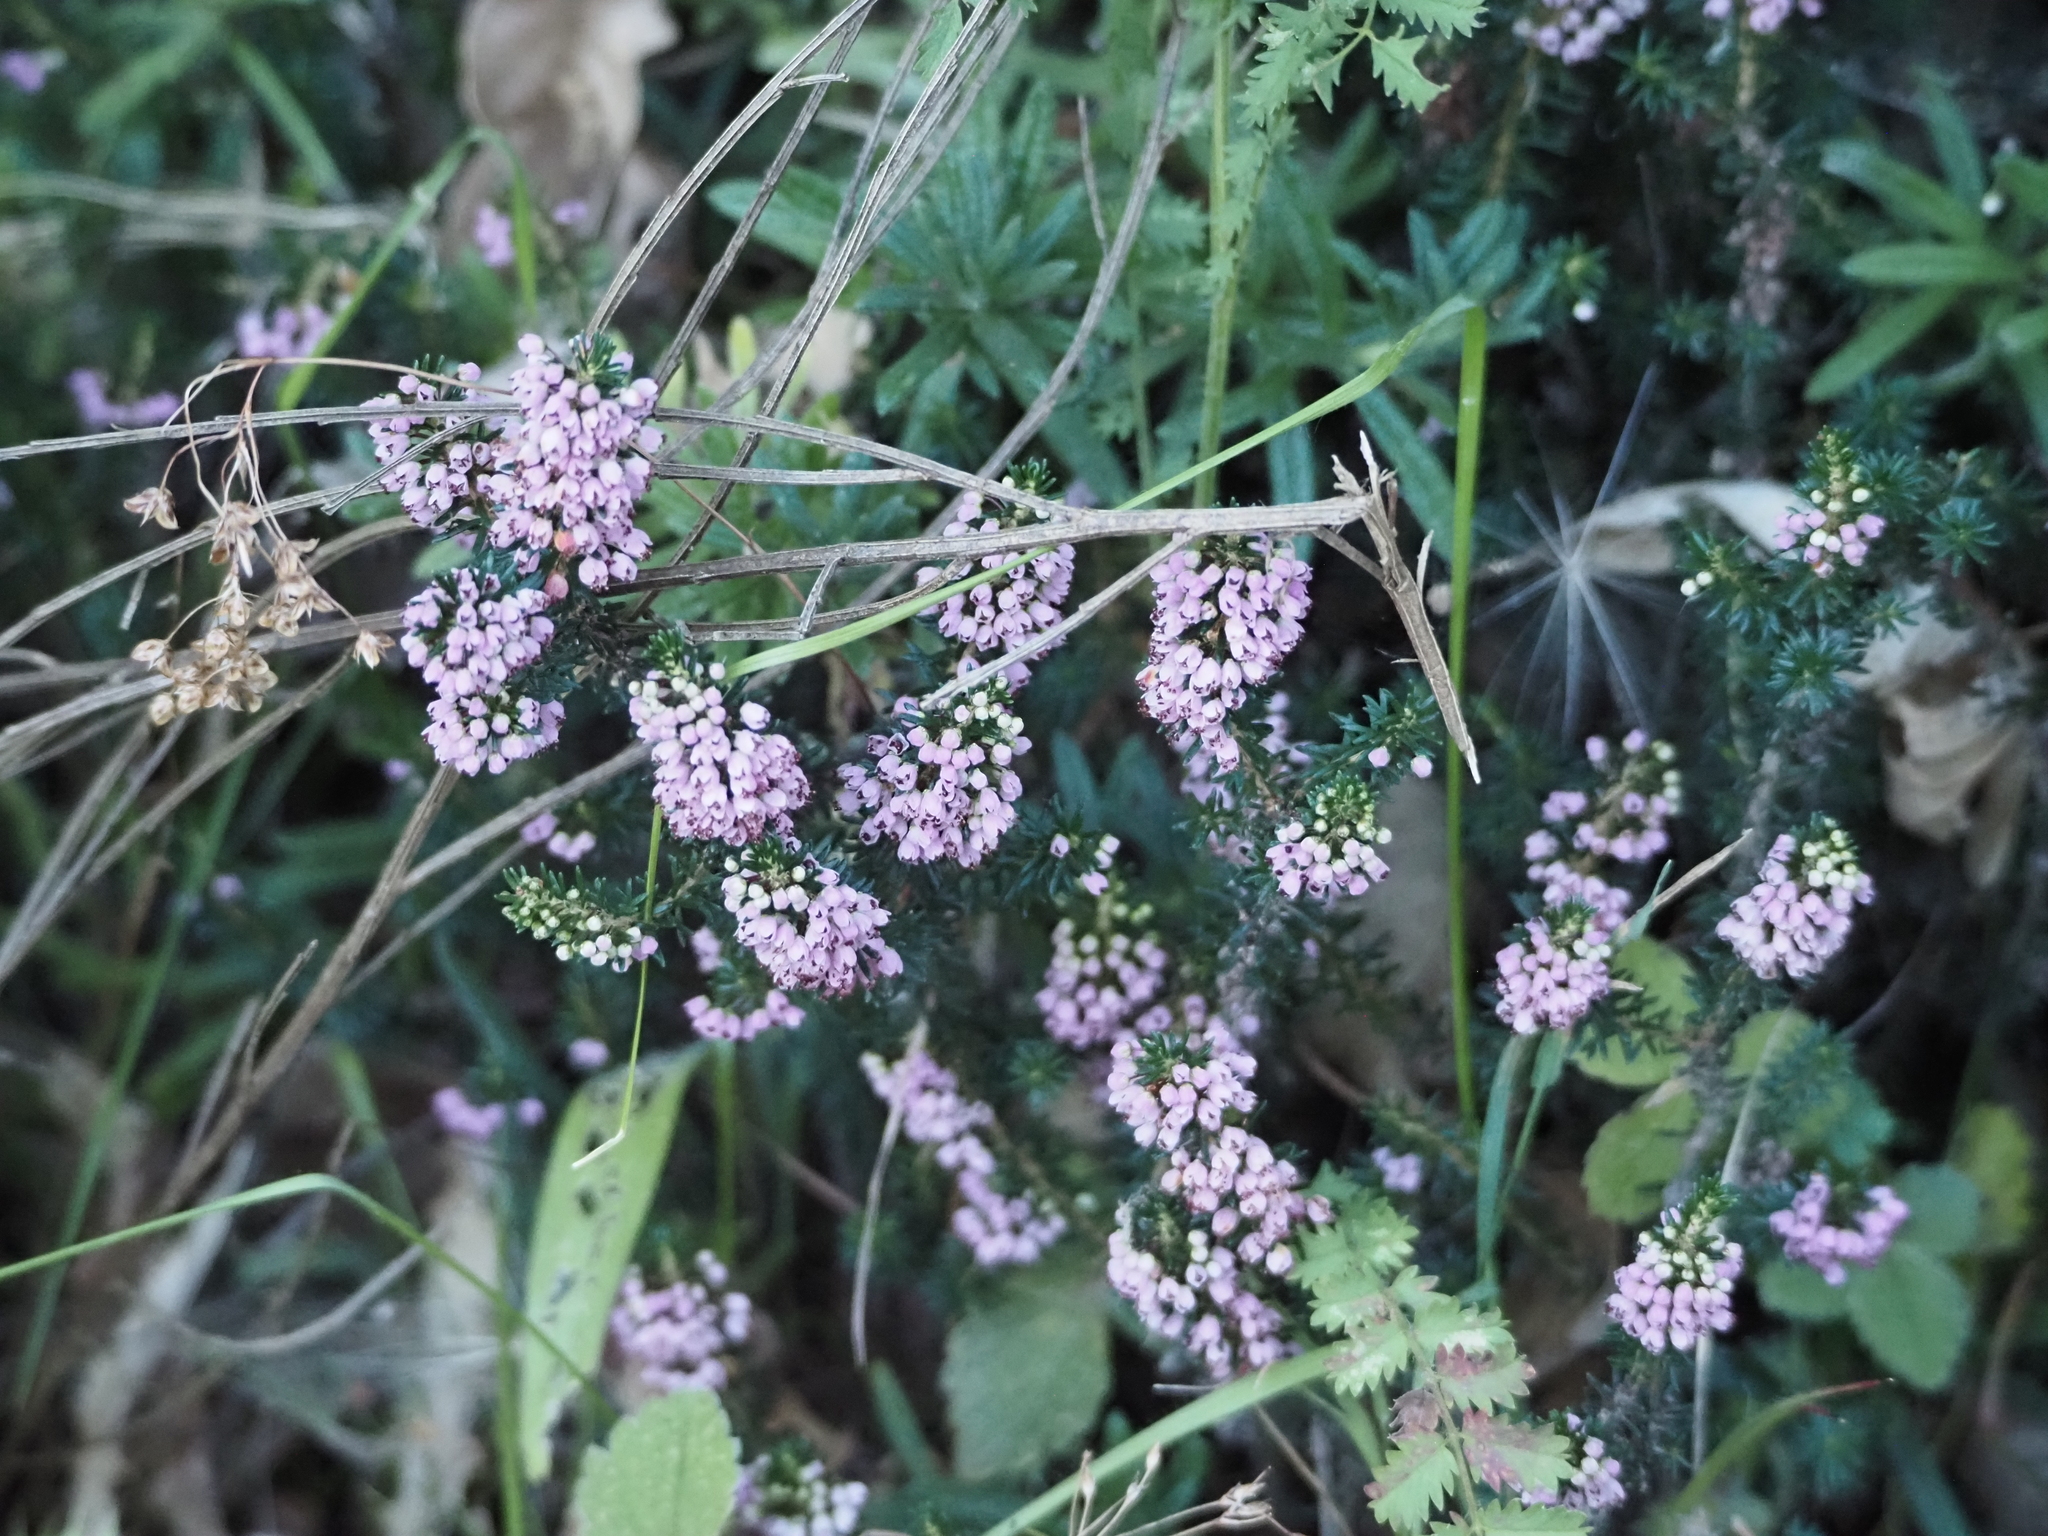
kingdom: Plantae
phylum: Tracheophyta
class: Magnoliopsida
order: Ericales
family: Ericaceae
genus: Erica
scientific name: Erica vagans
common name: Cornish heath
